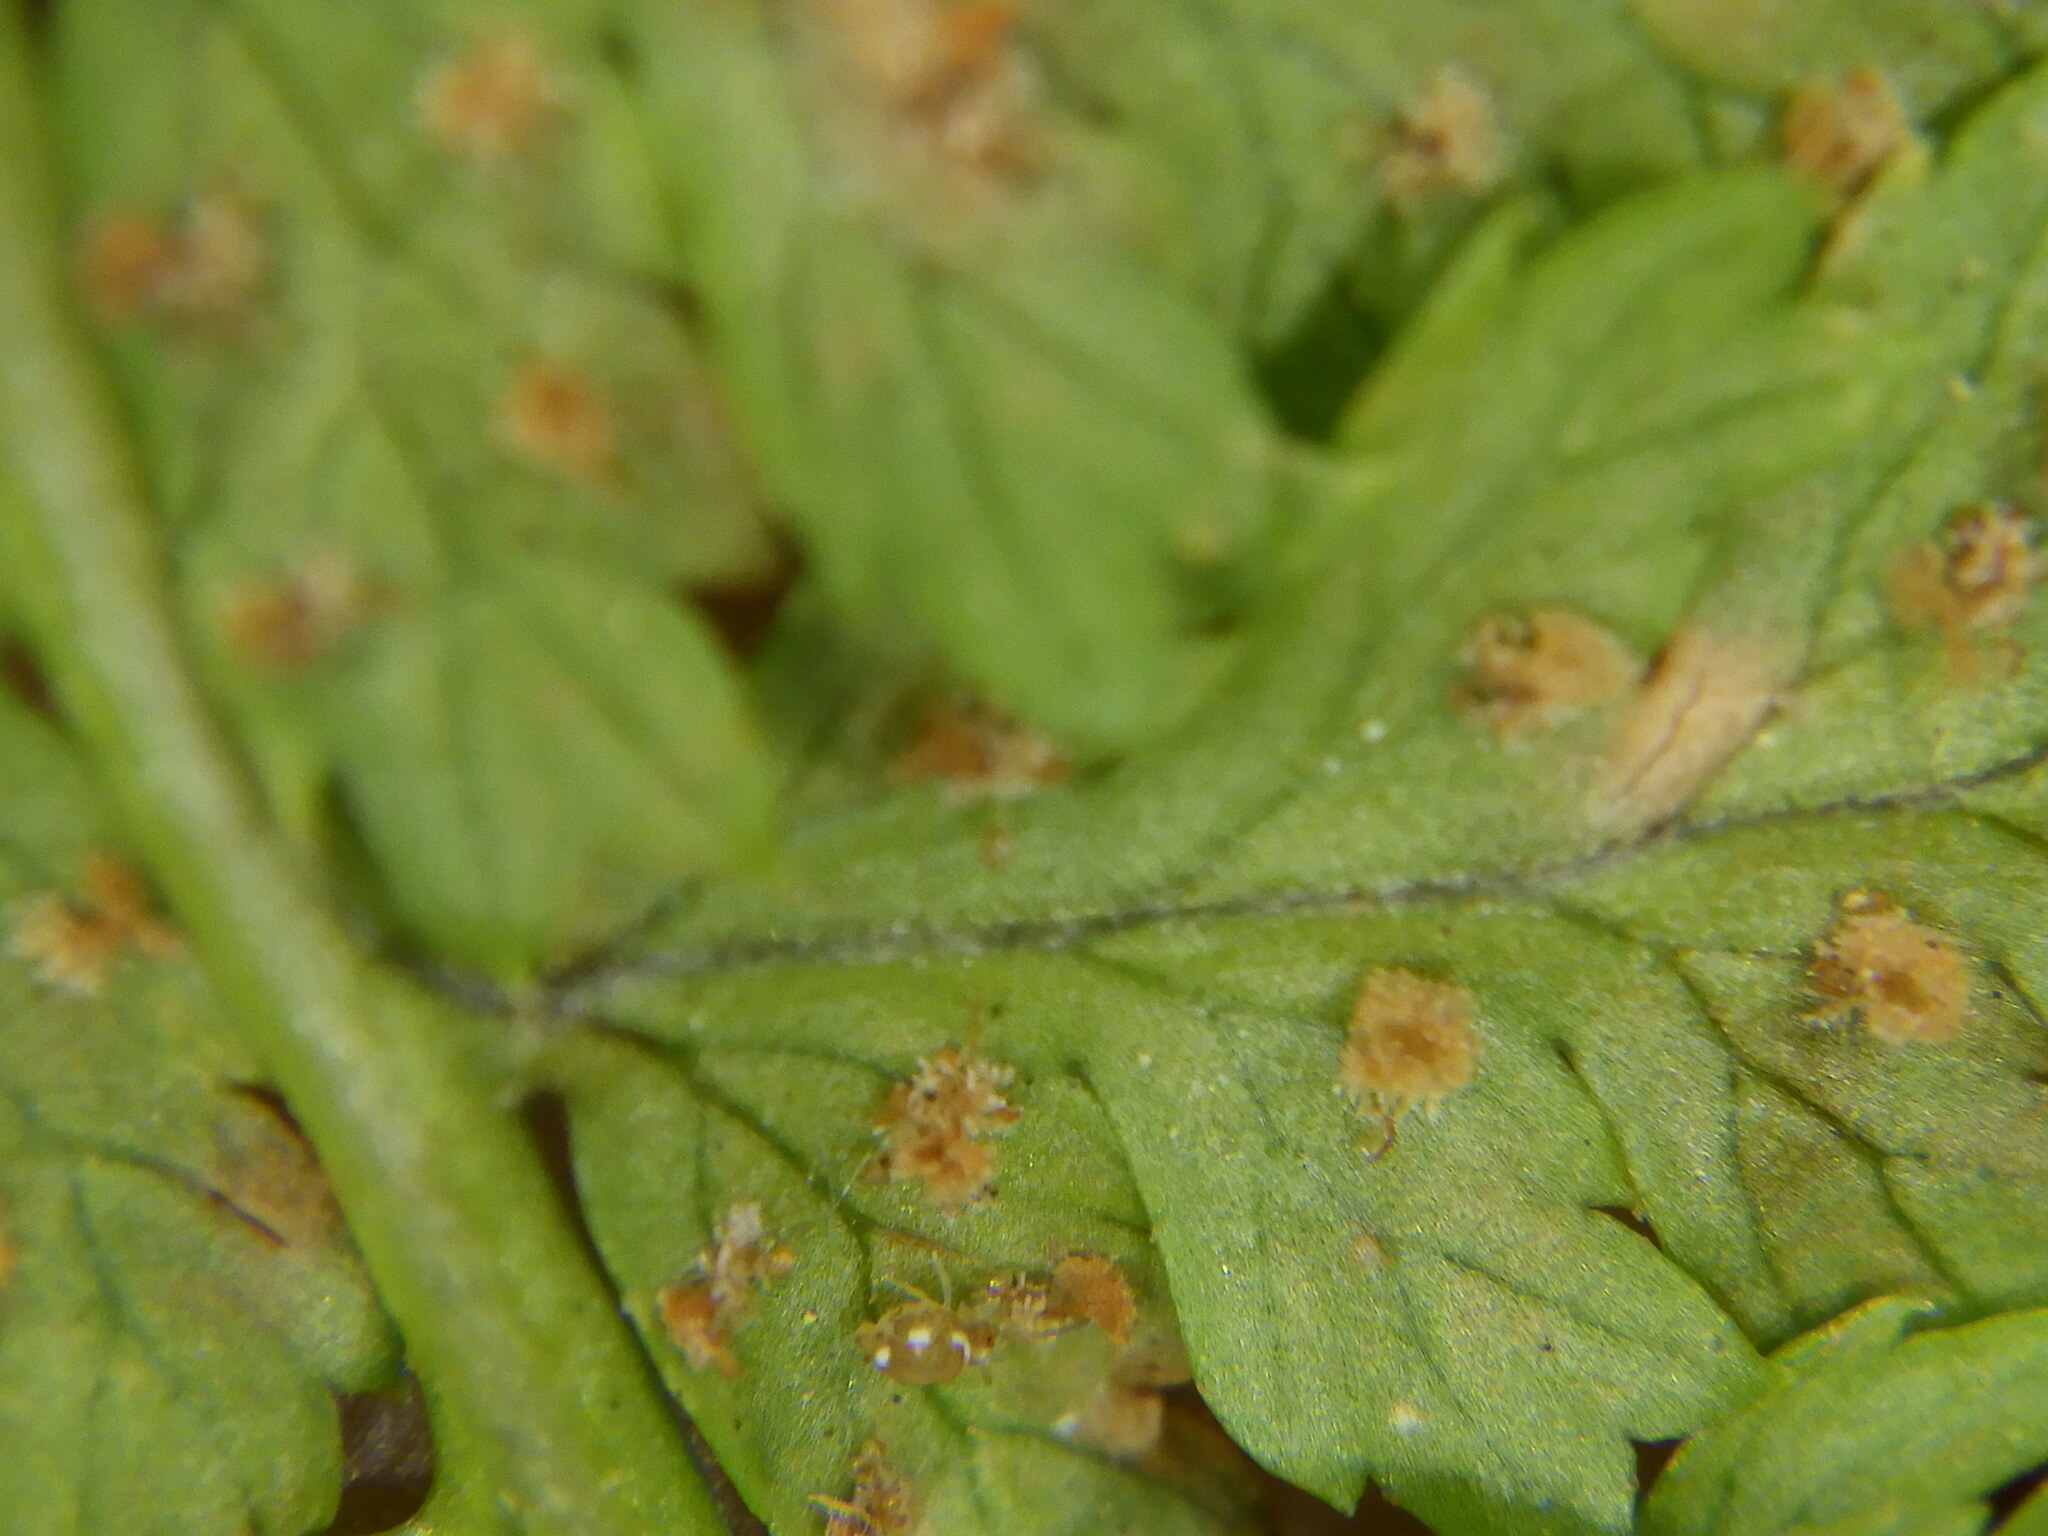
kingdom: Plantae
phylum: Tracheophyta
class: Polypodiopsida
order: Polypodiales
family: Dryopteridaceae
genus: Dryopteris
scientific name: Dryopteris intermedia
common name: Evergreen wood fern
